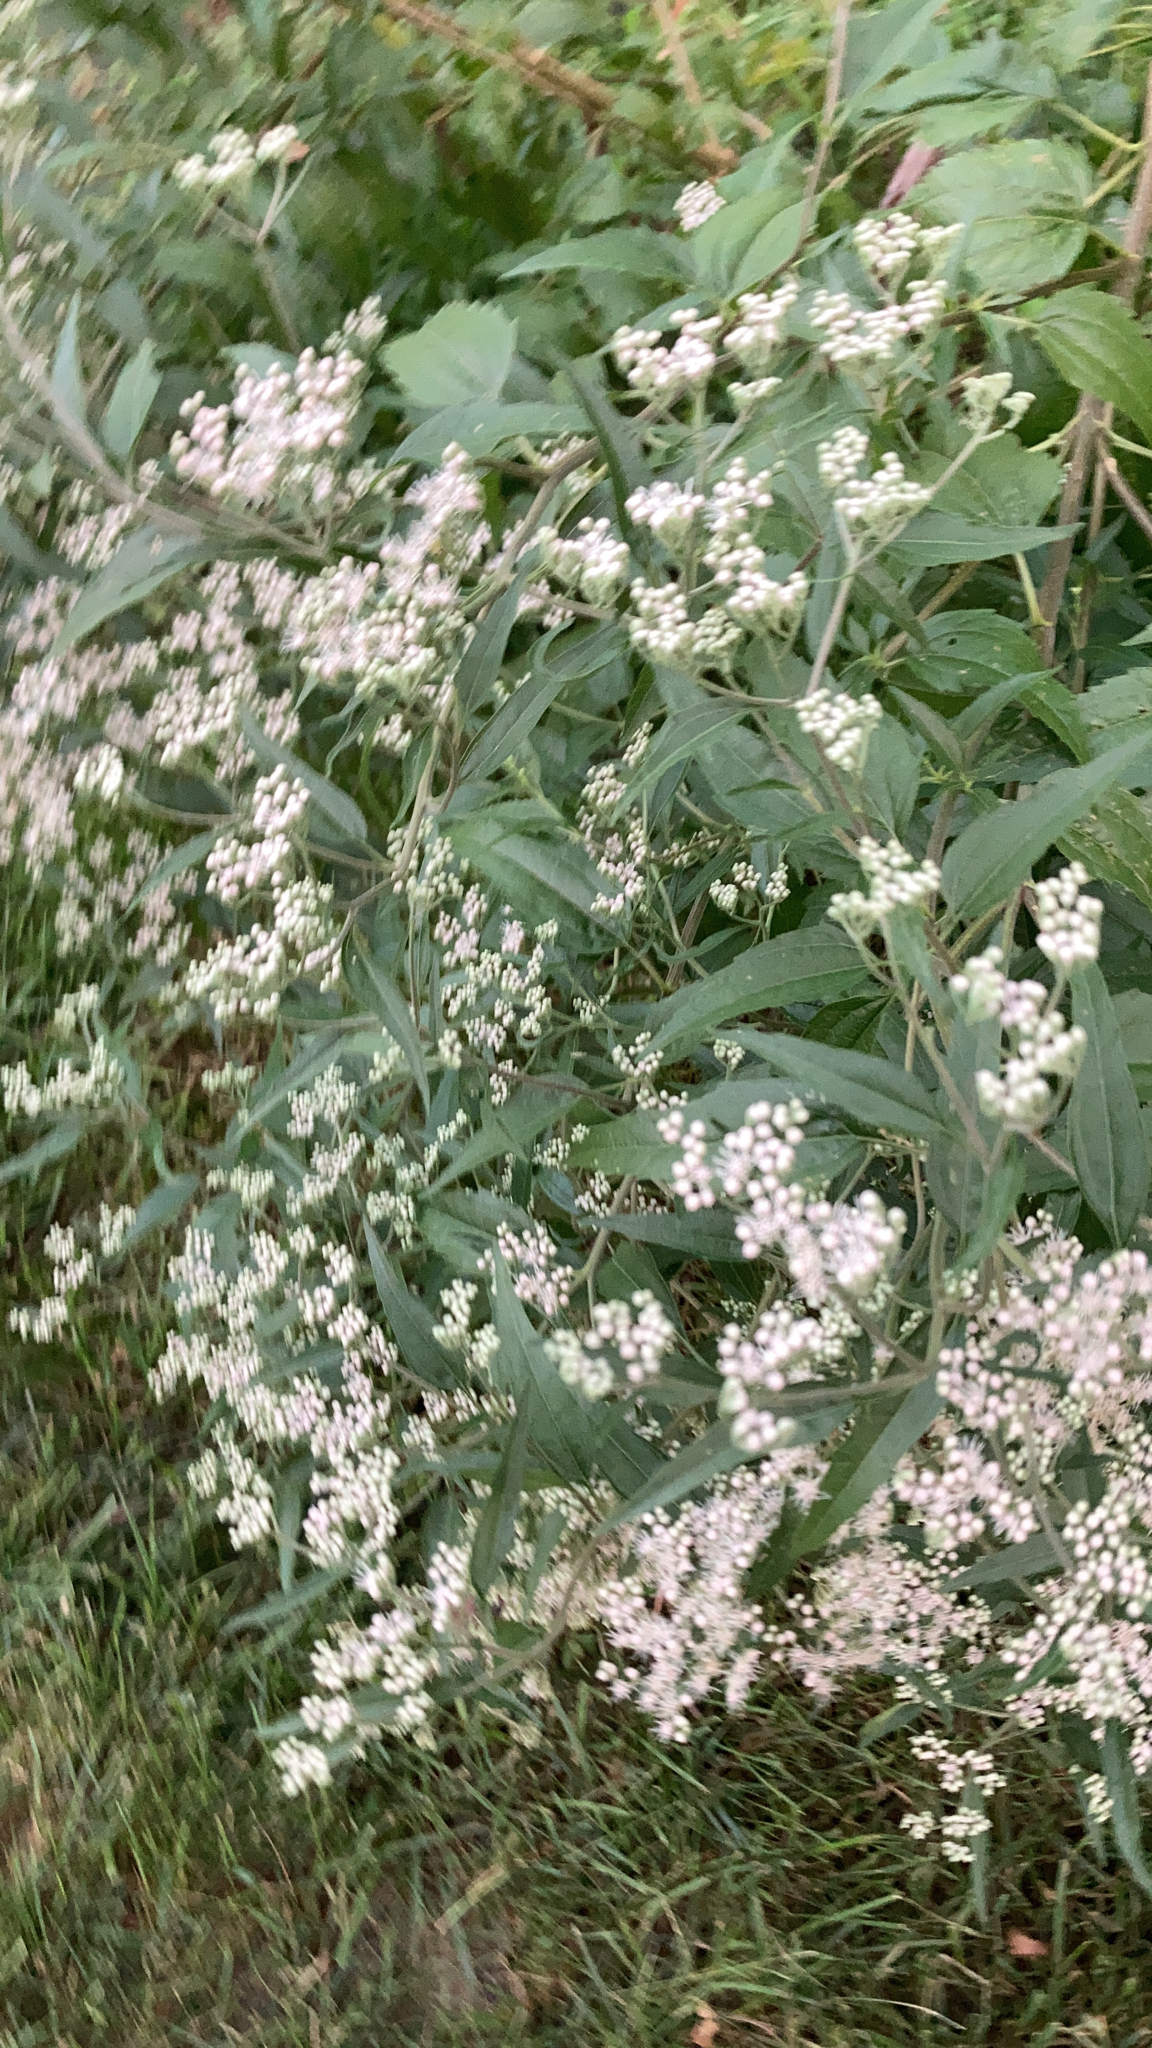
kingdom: Plantae
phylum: Tracheophyta
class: Magnoliopsida
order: Asterales
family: Asteraceae
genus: Eupatorium
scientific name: Eupatorium serotinum
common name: Late boneset
